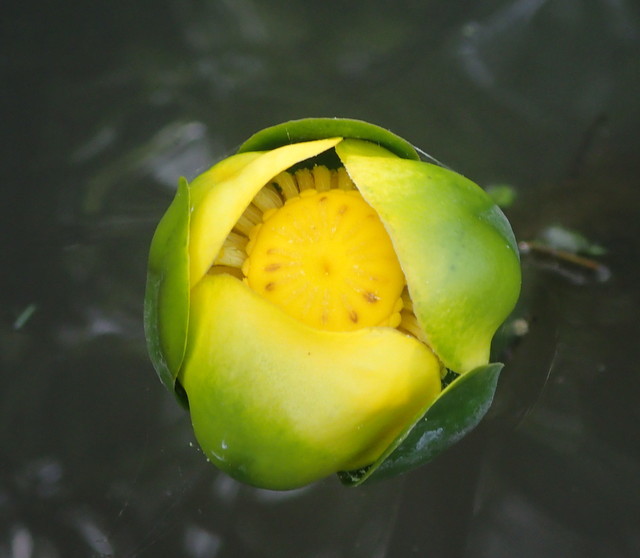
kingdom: Plantae
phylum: Tracheophyta
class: Magnoliopsida
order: Nymphaeales
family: Nymphaeaceae
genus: Nuphar
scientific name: Nuphar advena
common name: Spatter-dock
